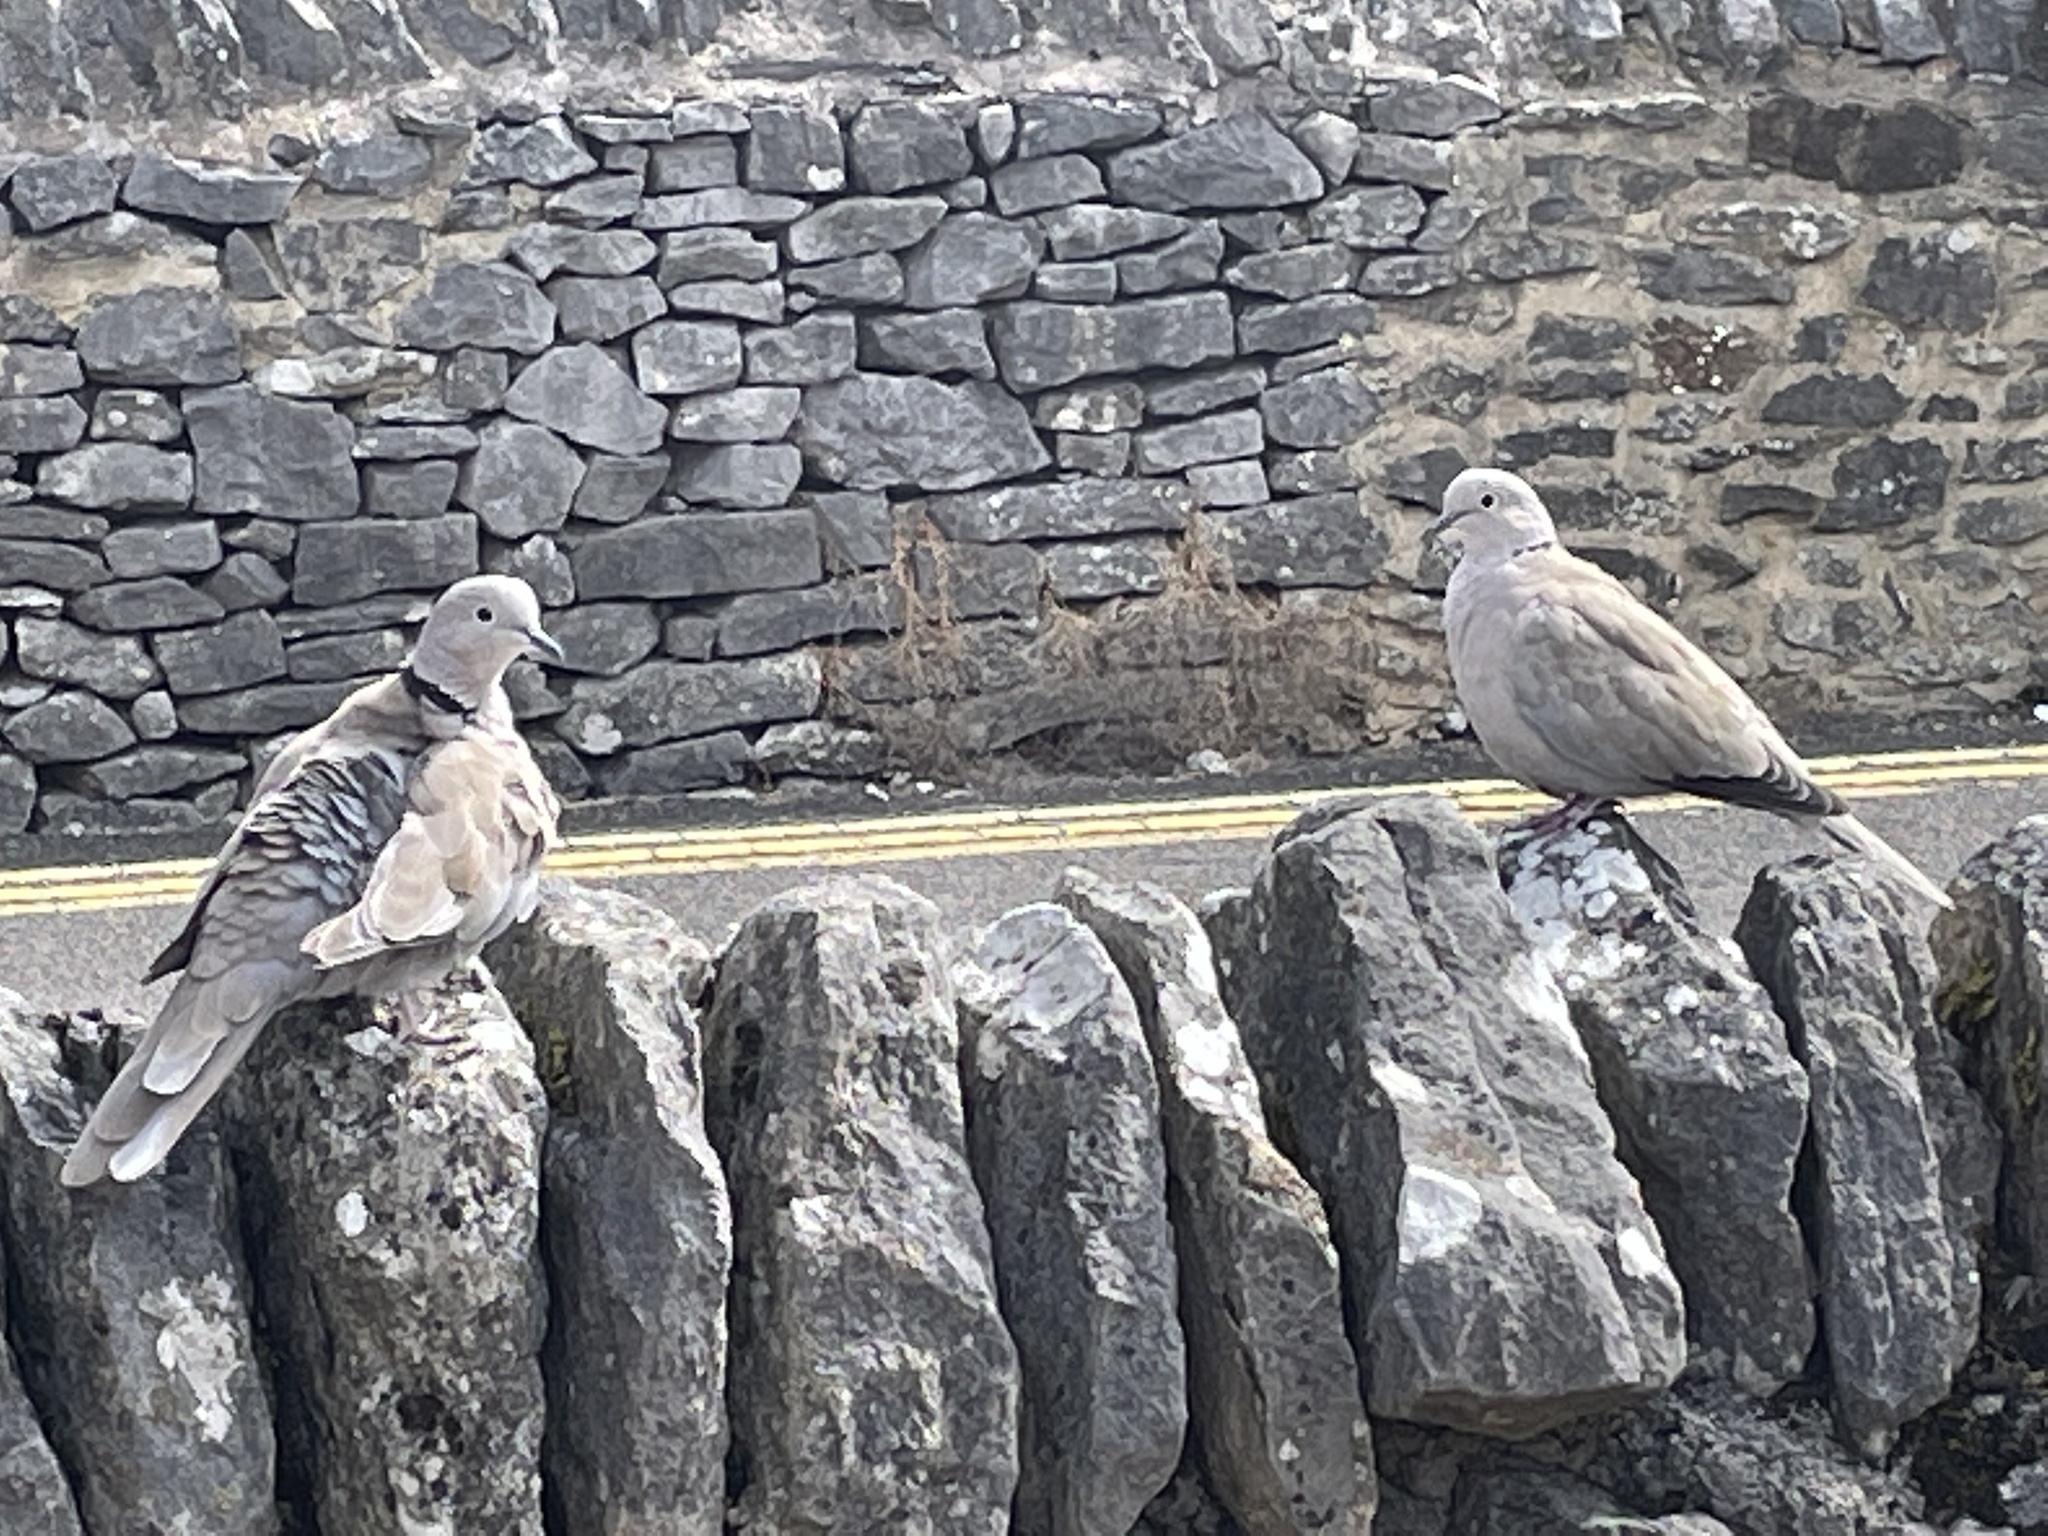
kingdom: Animalia
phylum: Chordata
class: Aves
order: Columbiformes
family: Columbidae
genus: Streptopelia
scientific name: Streptopelia decaocto
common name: Eurasian collared dove
